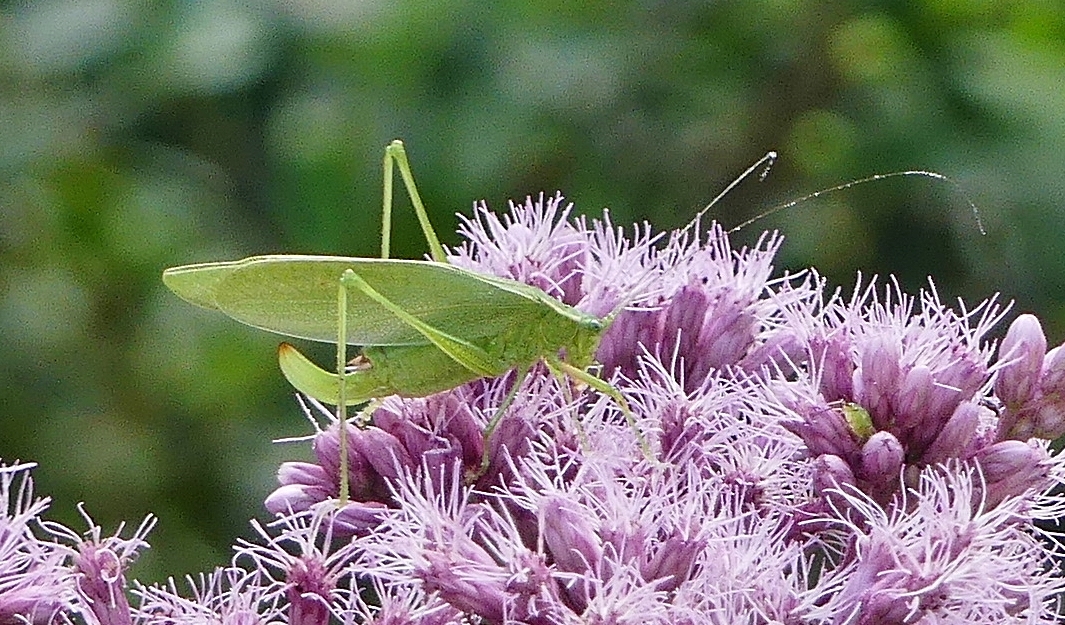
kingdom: Animalia
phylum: Arthropoda
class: Insecta
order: Orthoptera
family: Tettigoniidae
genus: Scudderia
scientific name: Scudderia septentrionalis
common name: Northern bush-katydid
